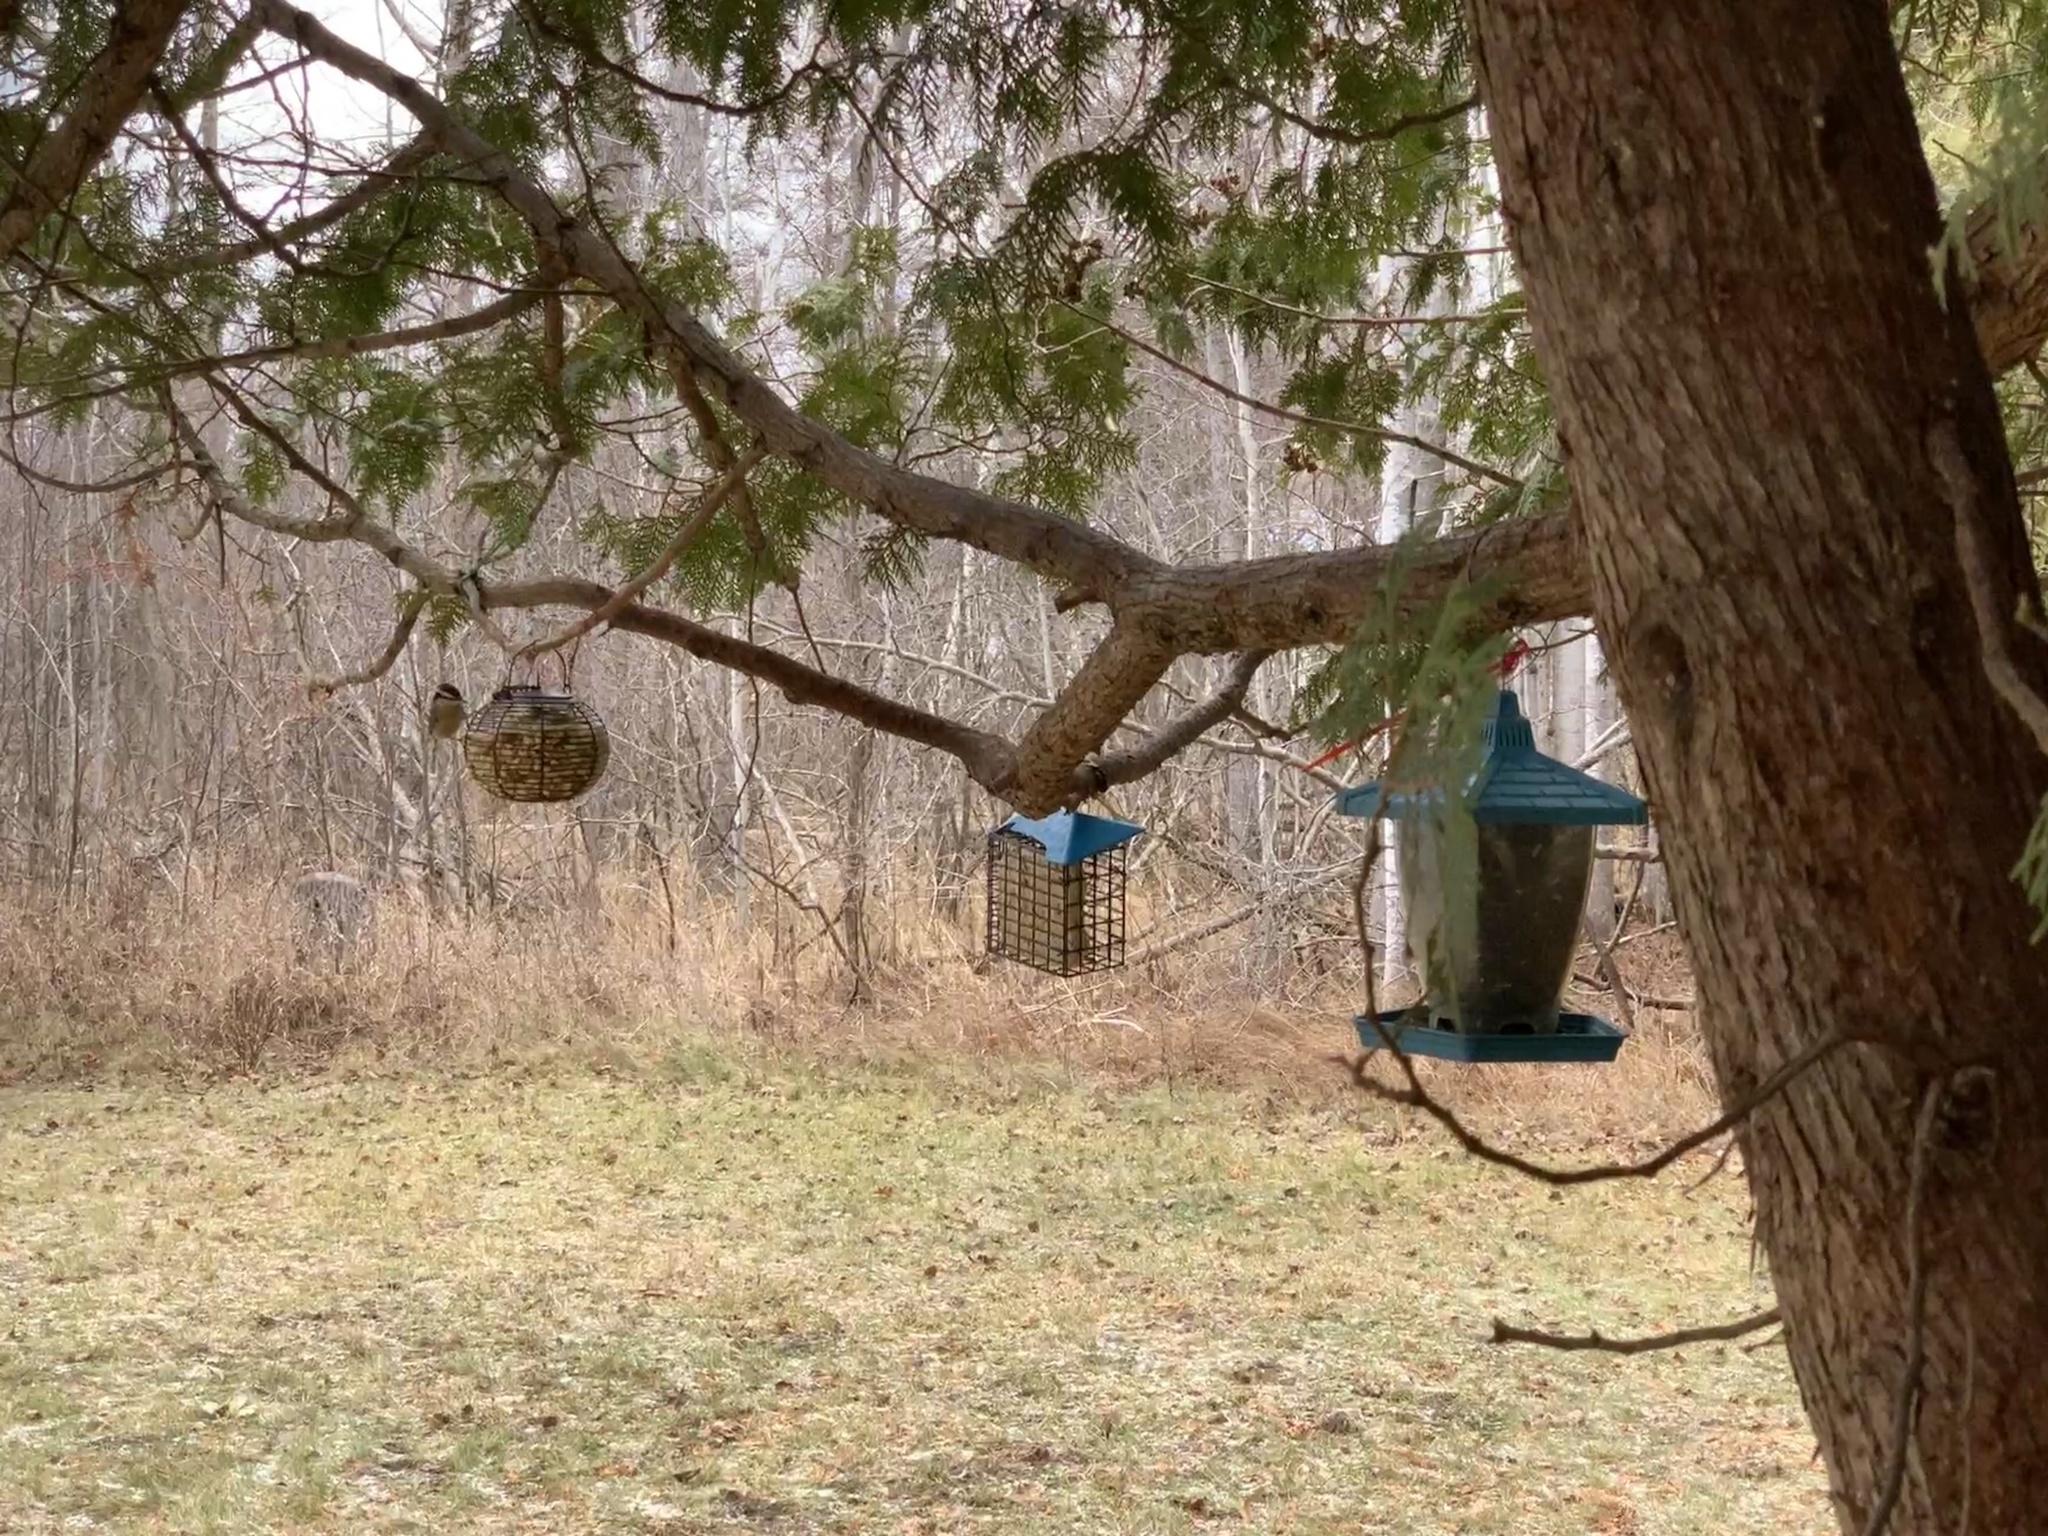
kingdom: Animalia
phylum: Chordata
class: Aves
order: Passeriformes
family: Sittidae
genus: Sitta
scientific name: Sitta canadensis
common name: Red-breasted nuthatch
